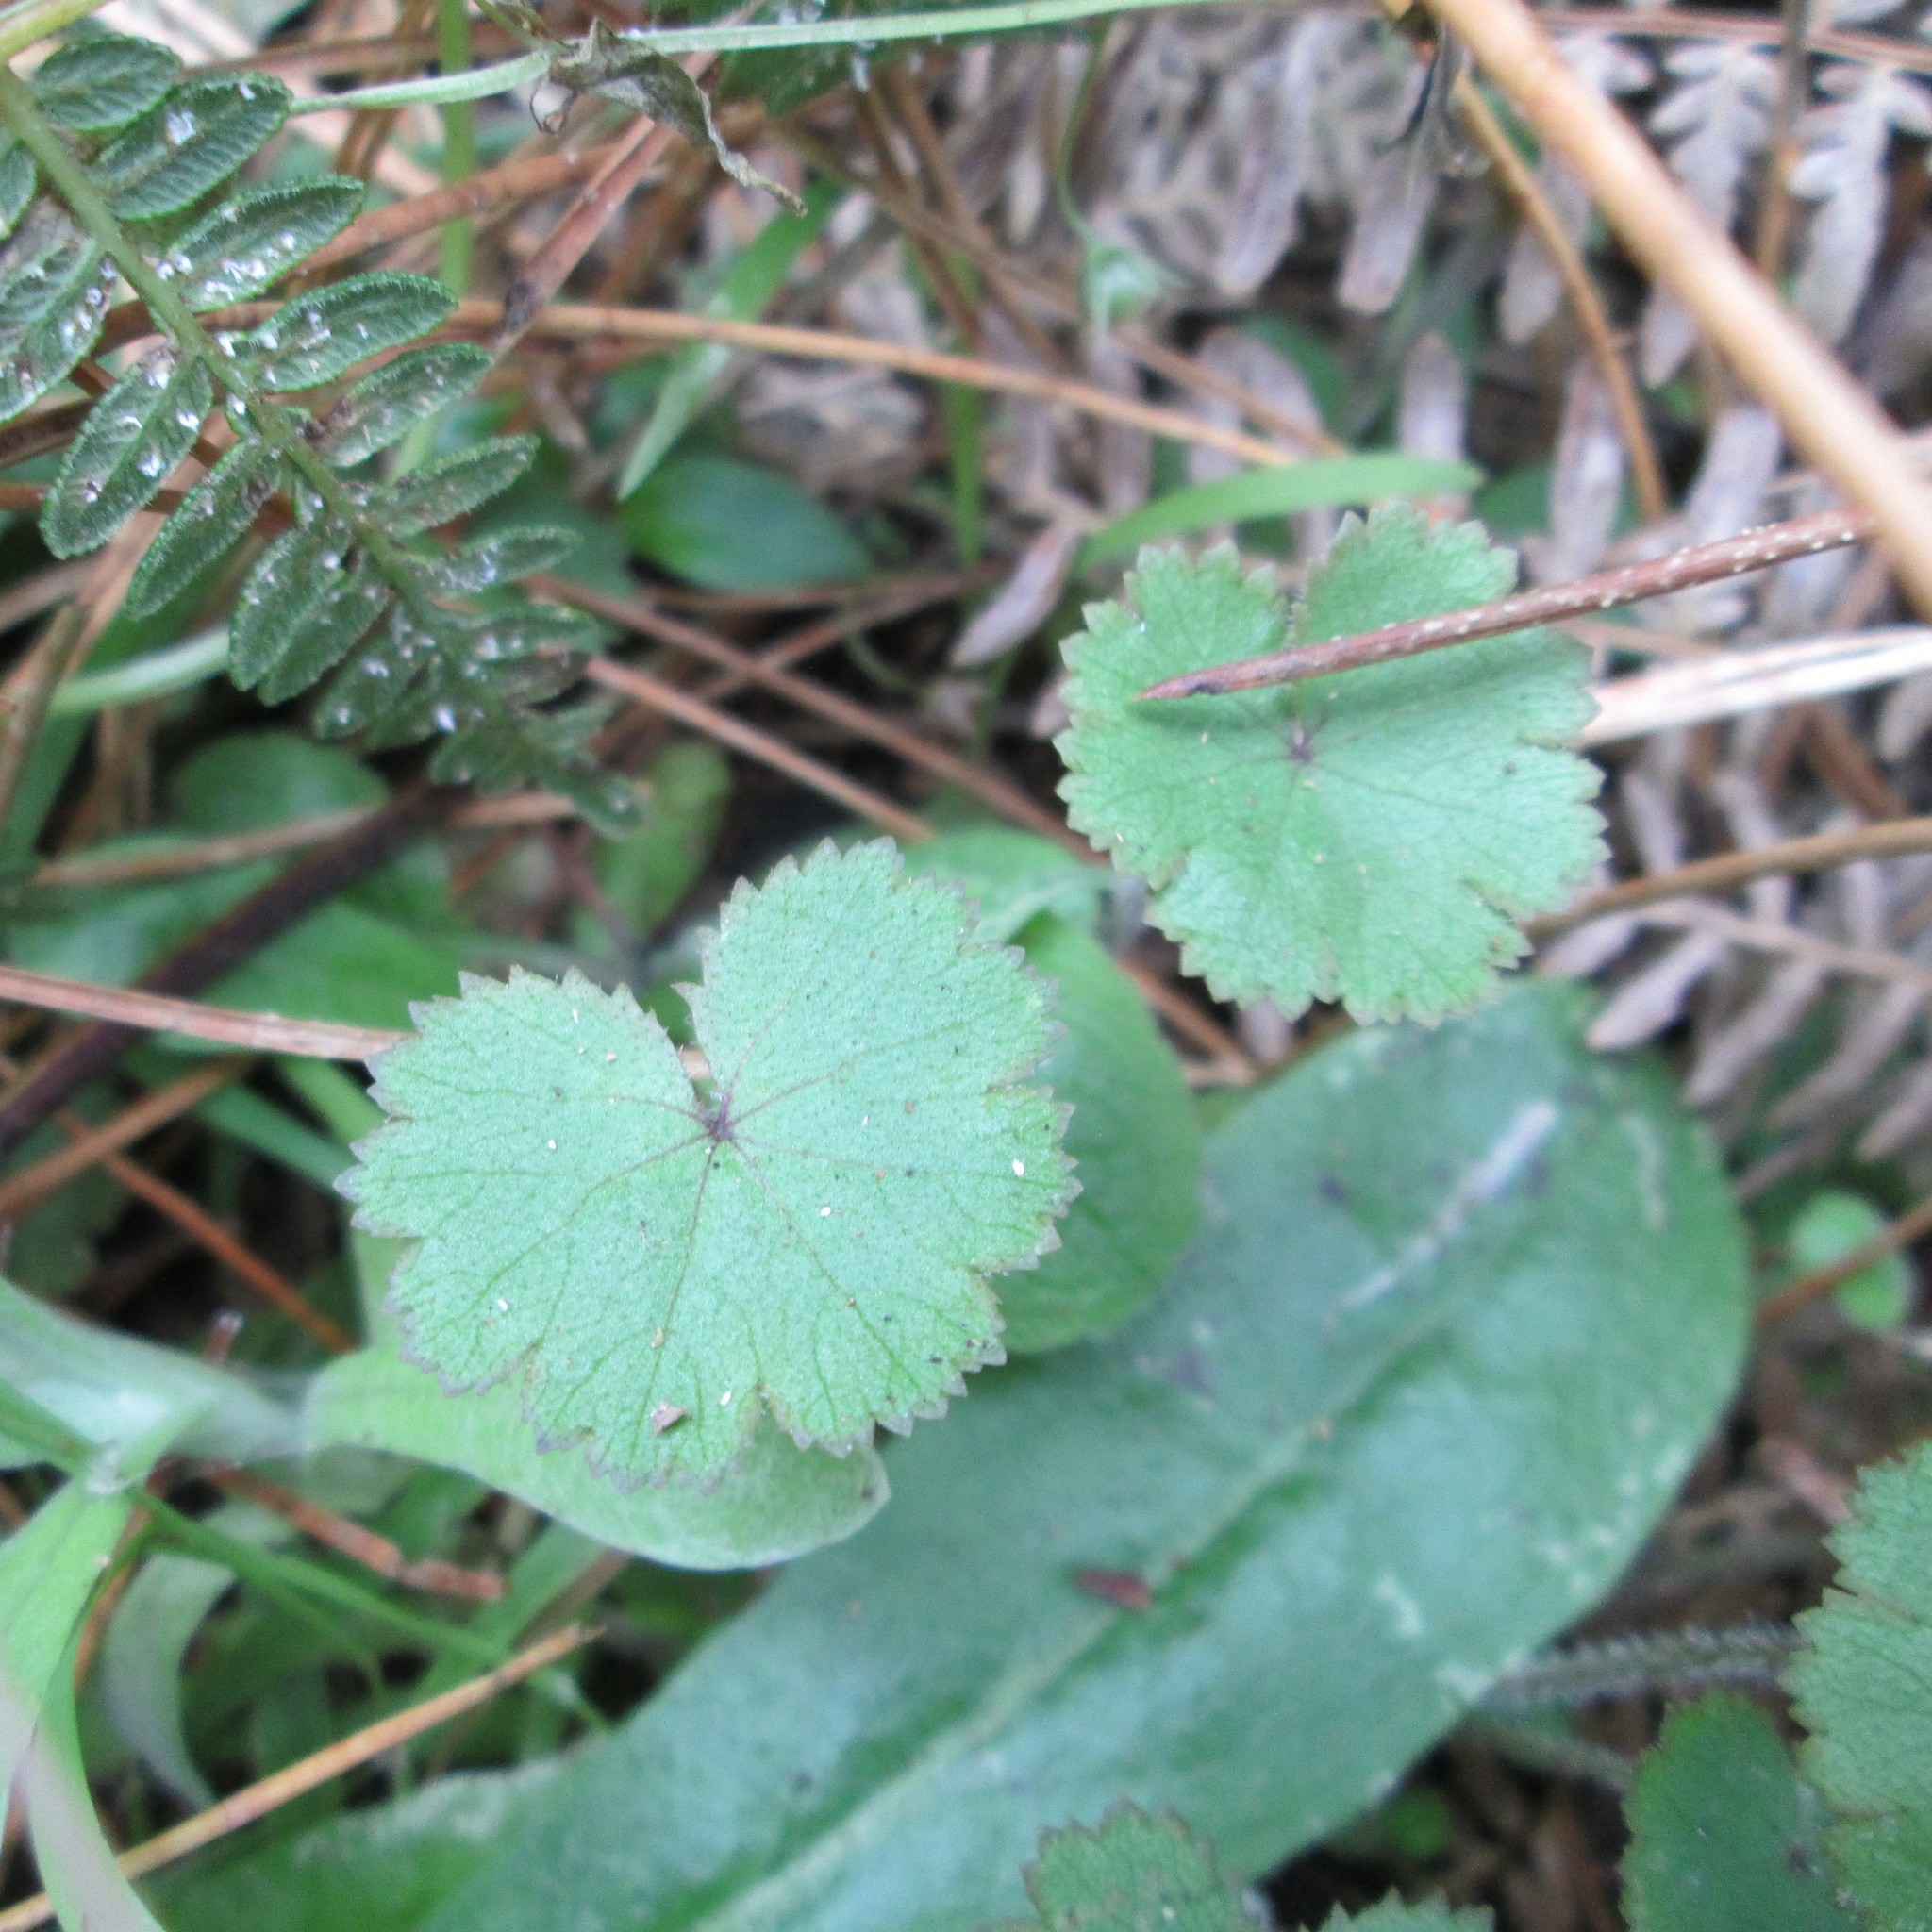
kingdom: Plantae
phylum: Tracheophyta
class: Magnoliopsida
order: Apiales
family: Araliaceae
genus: Hydrocotyle
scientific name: Hydrocotyle moschata
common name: Hairy pennywort
